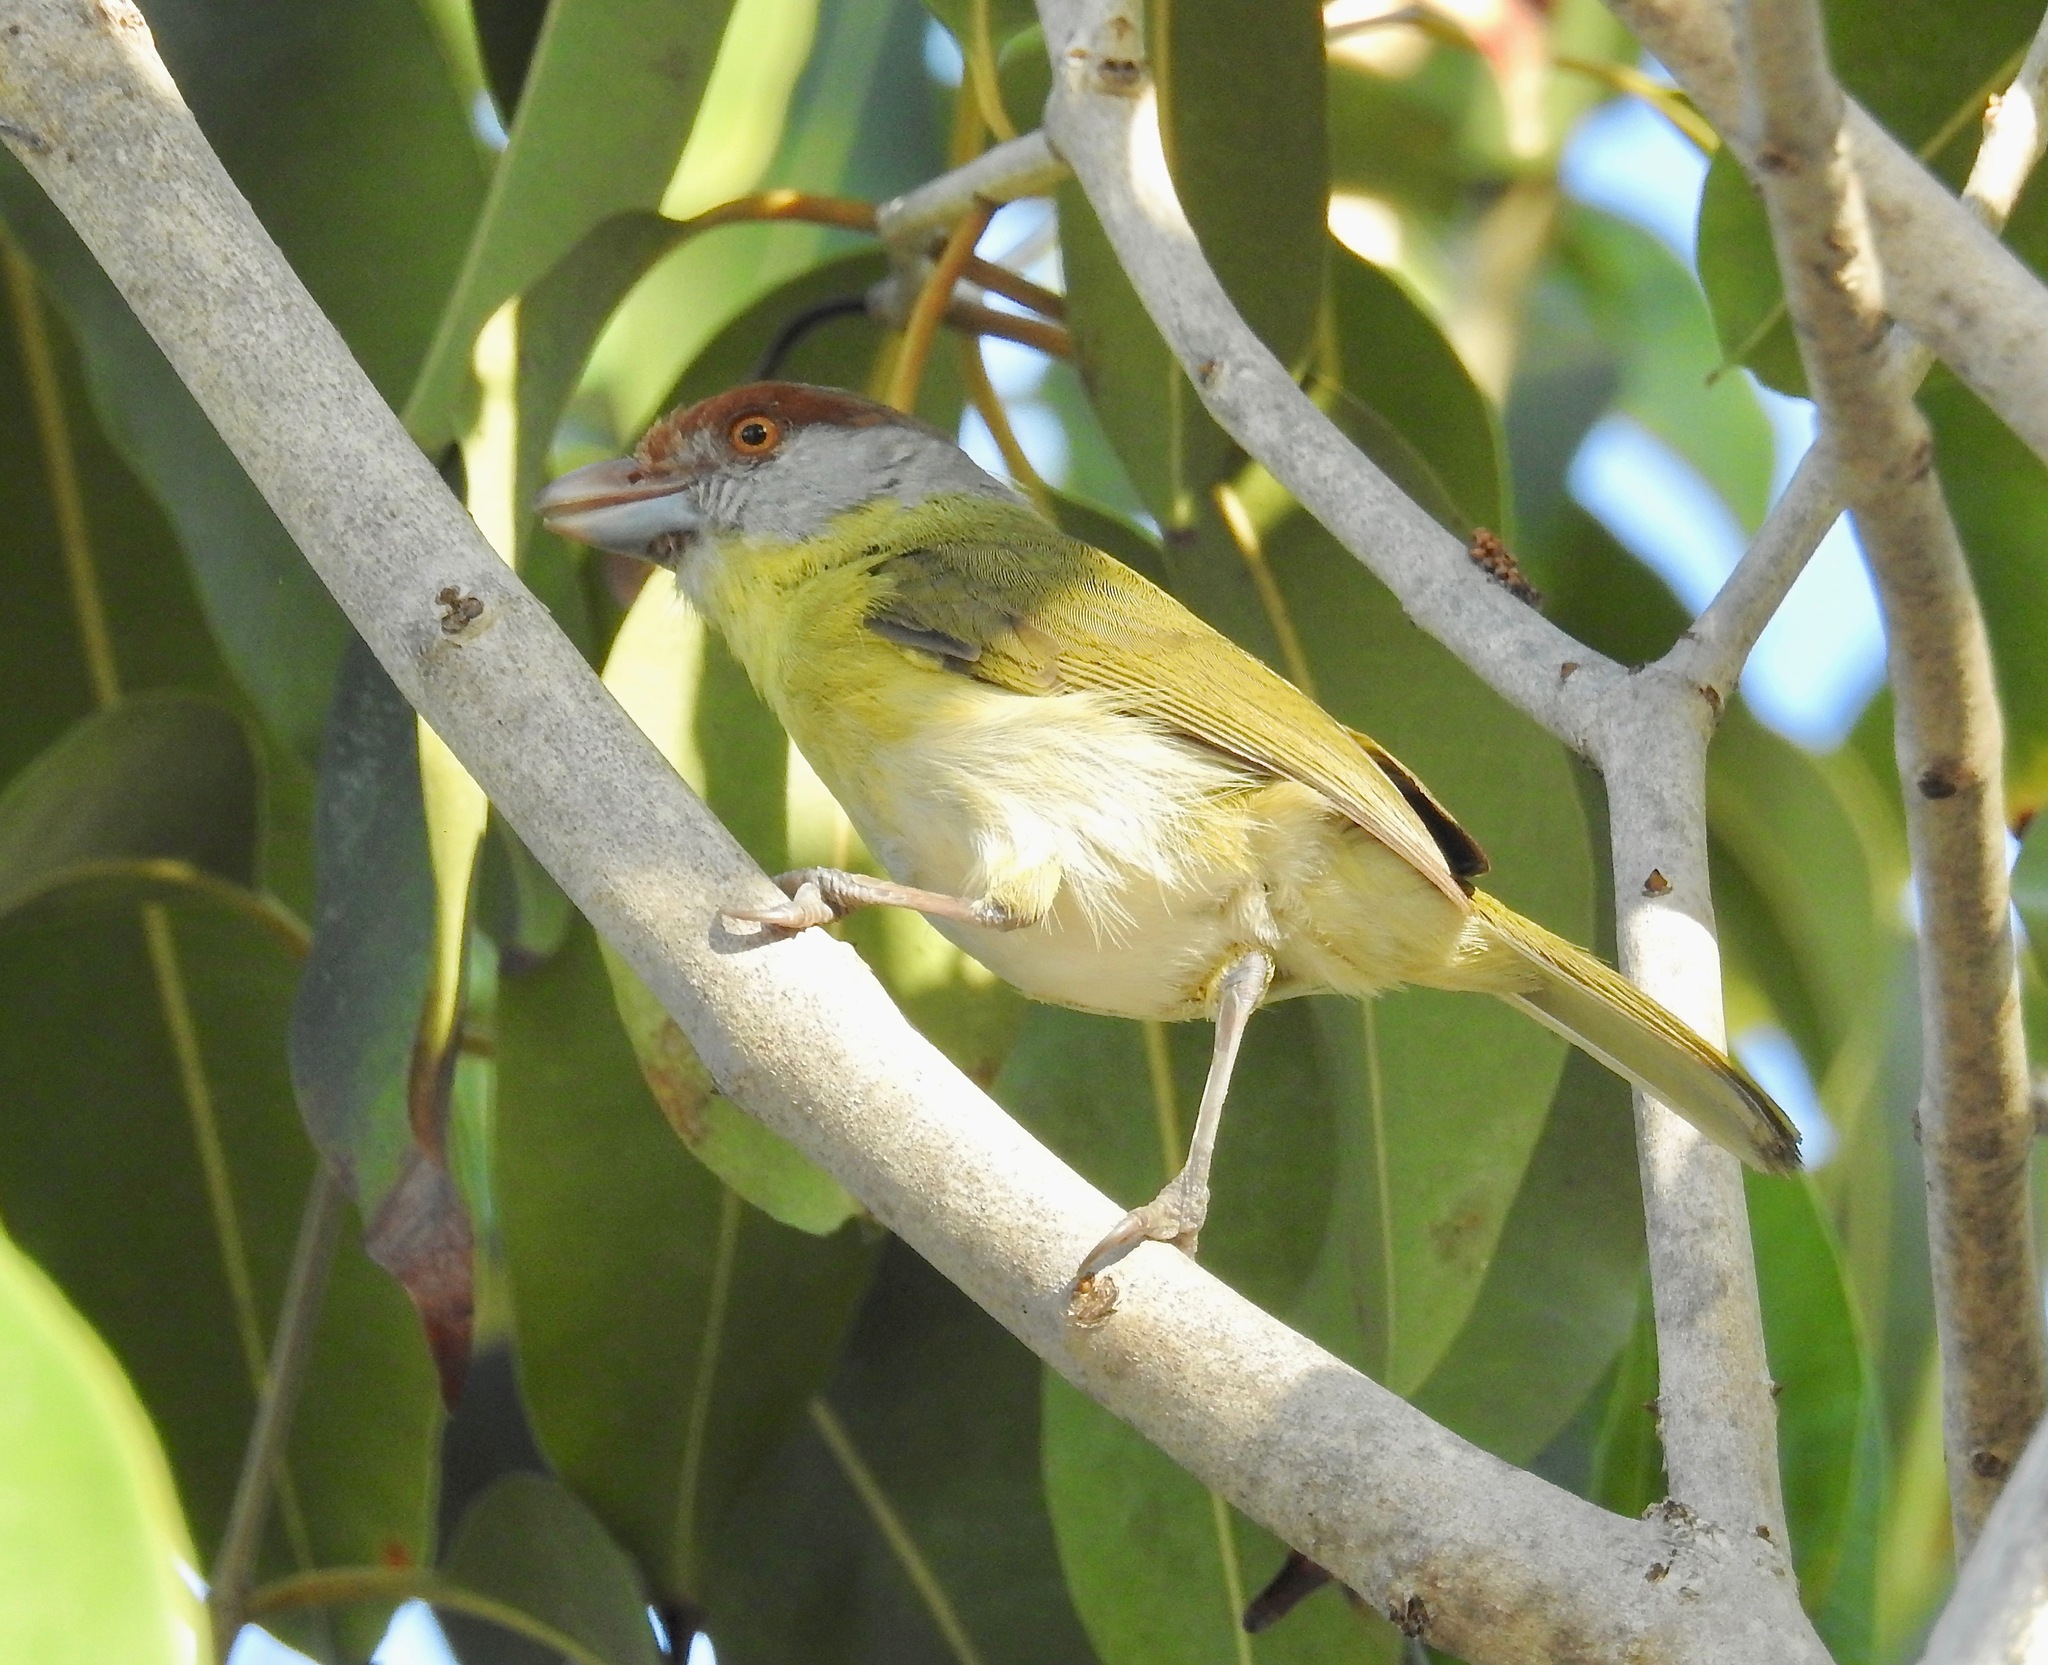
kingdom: Animalia
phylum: Chordata
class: Aves
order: Passeriformes
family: Vireonidae
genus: Cyclarhis
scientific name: Cyclarhis gujanensis
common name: Rufous-browed peppershrike
